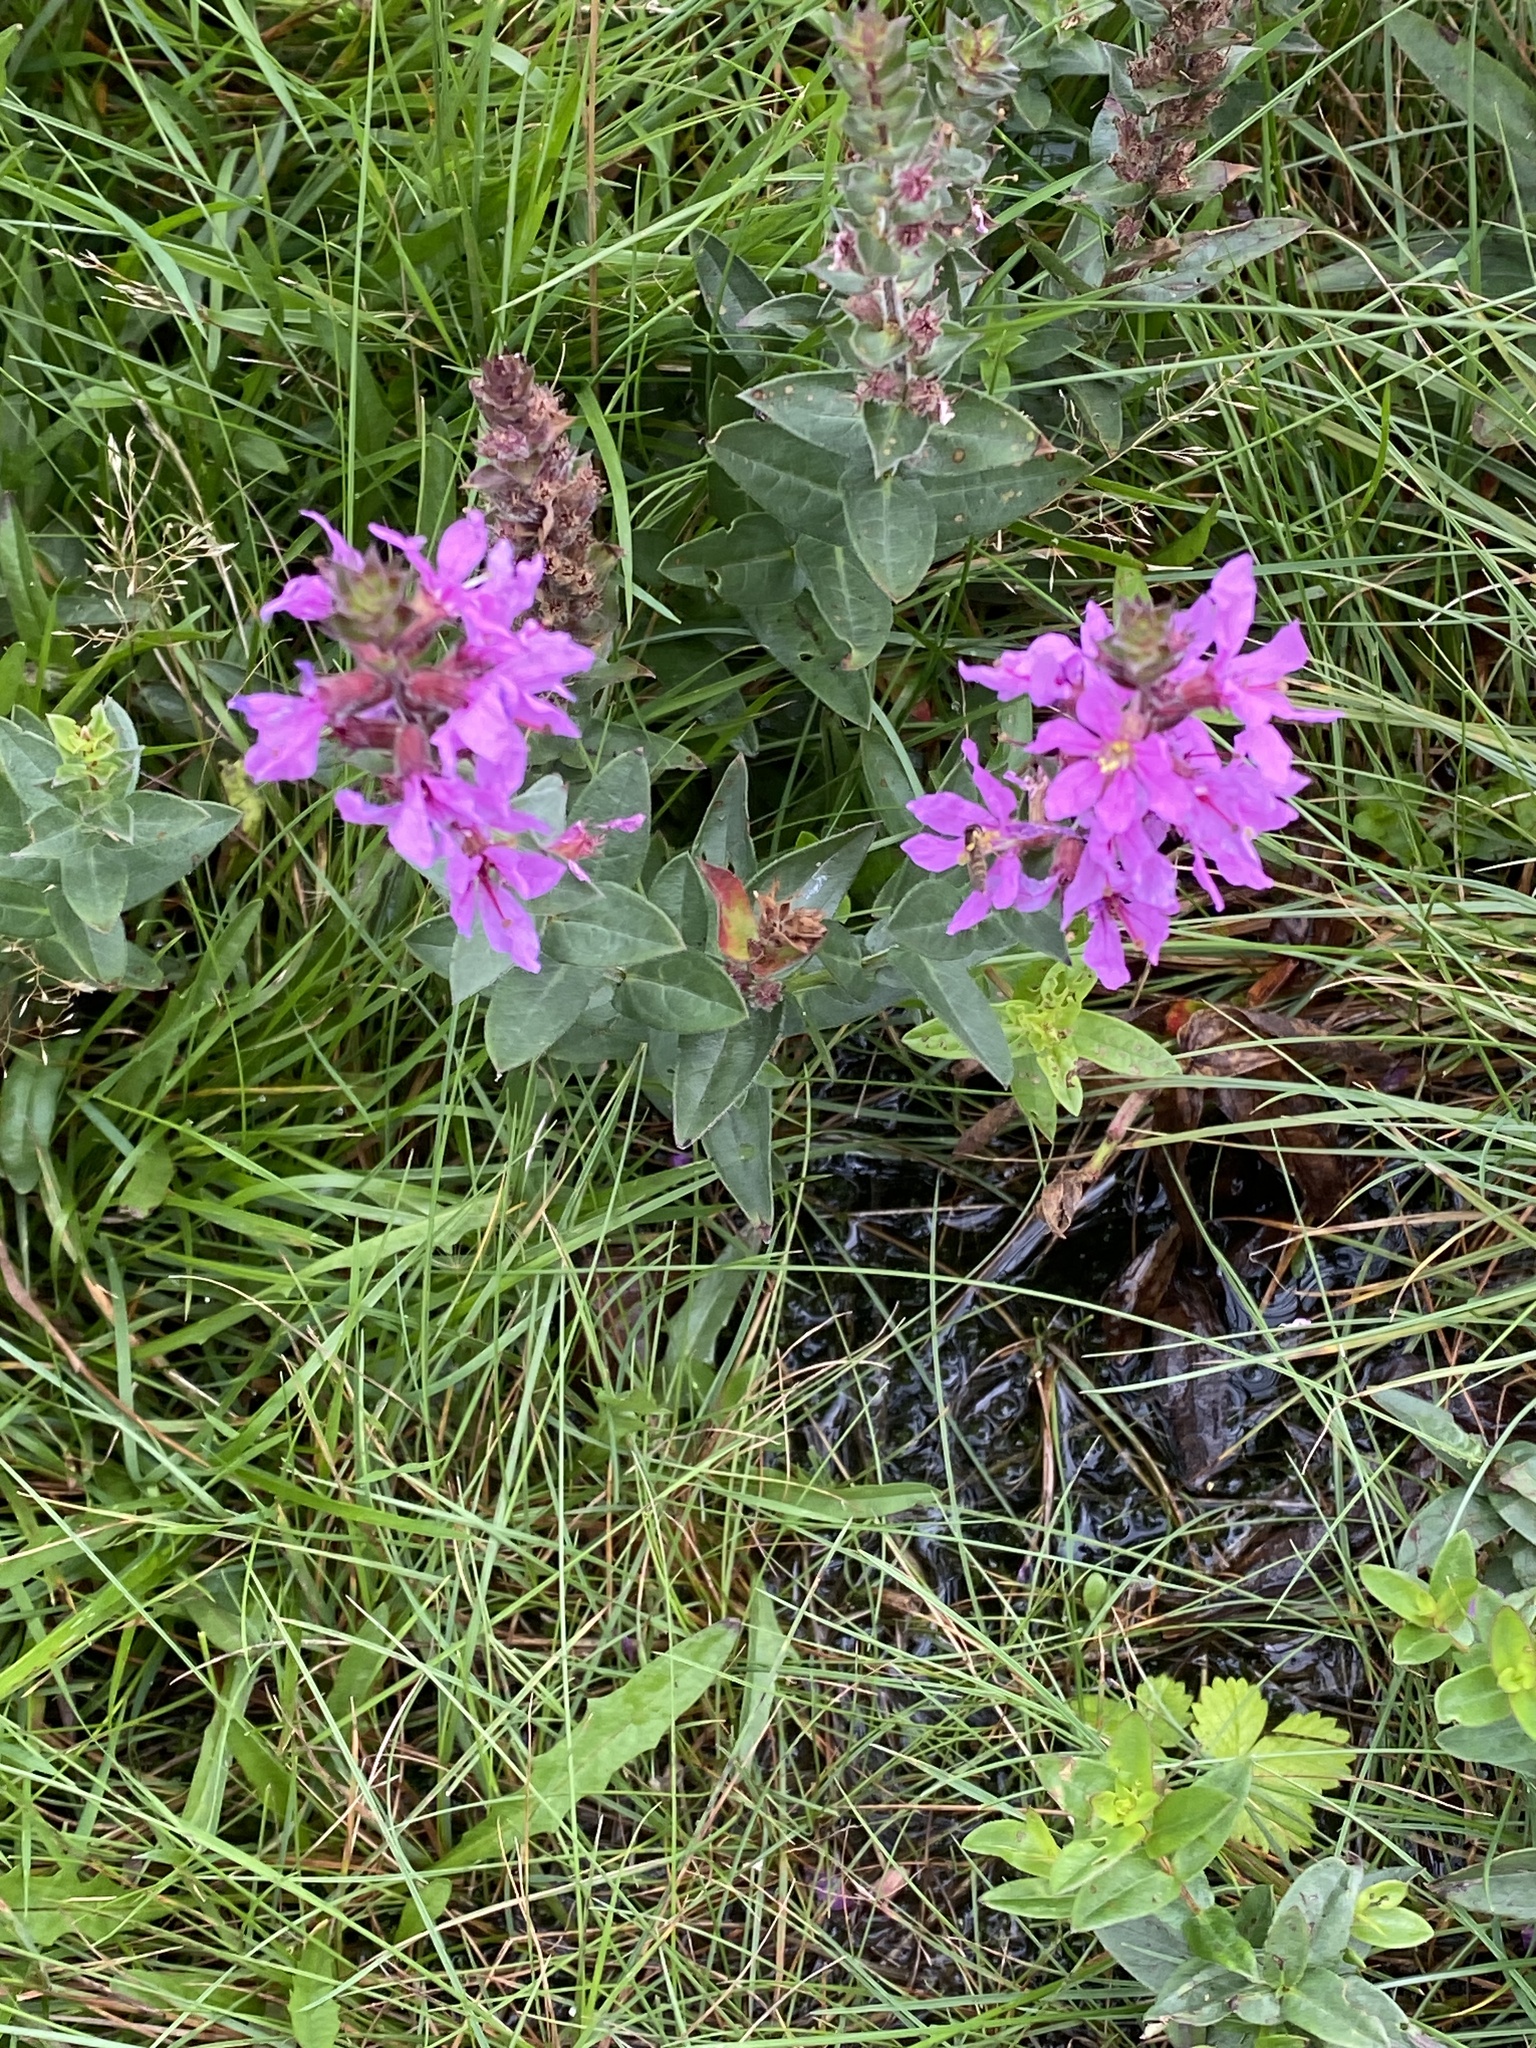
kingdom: Plantae
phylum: Tracheophyta
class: Magnoliopsida
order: Myrtales
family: Lythraceae
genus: Lythrum
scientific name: Lythrum salicaria
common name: Purple loosestrife
